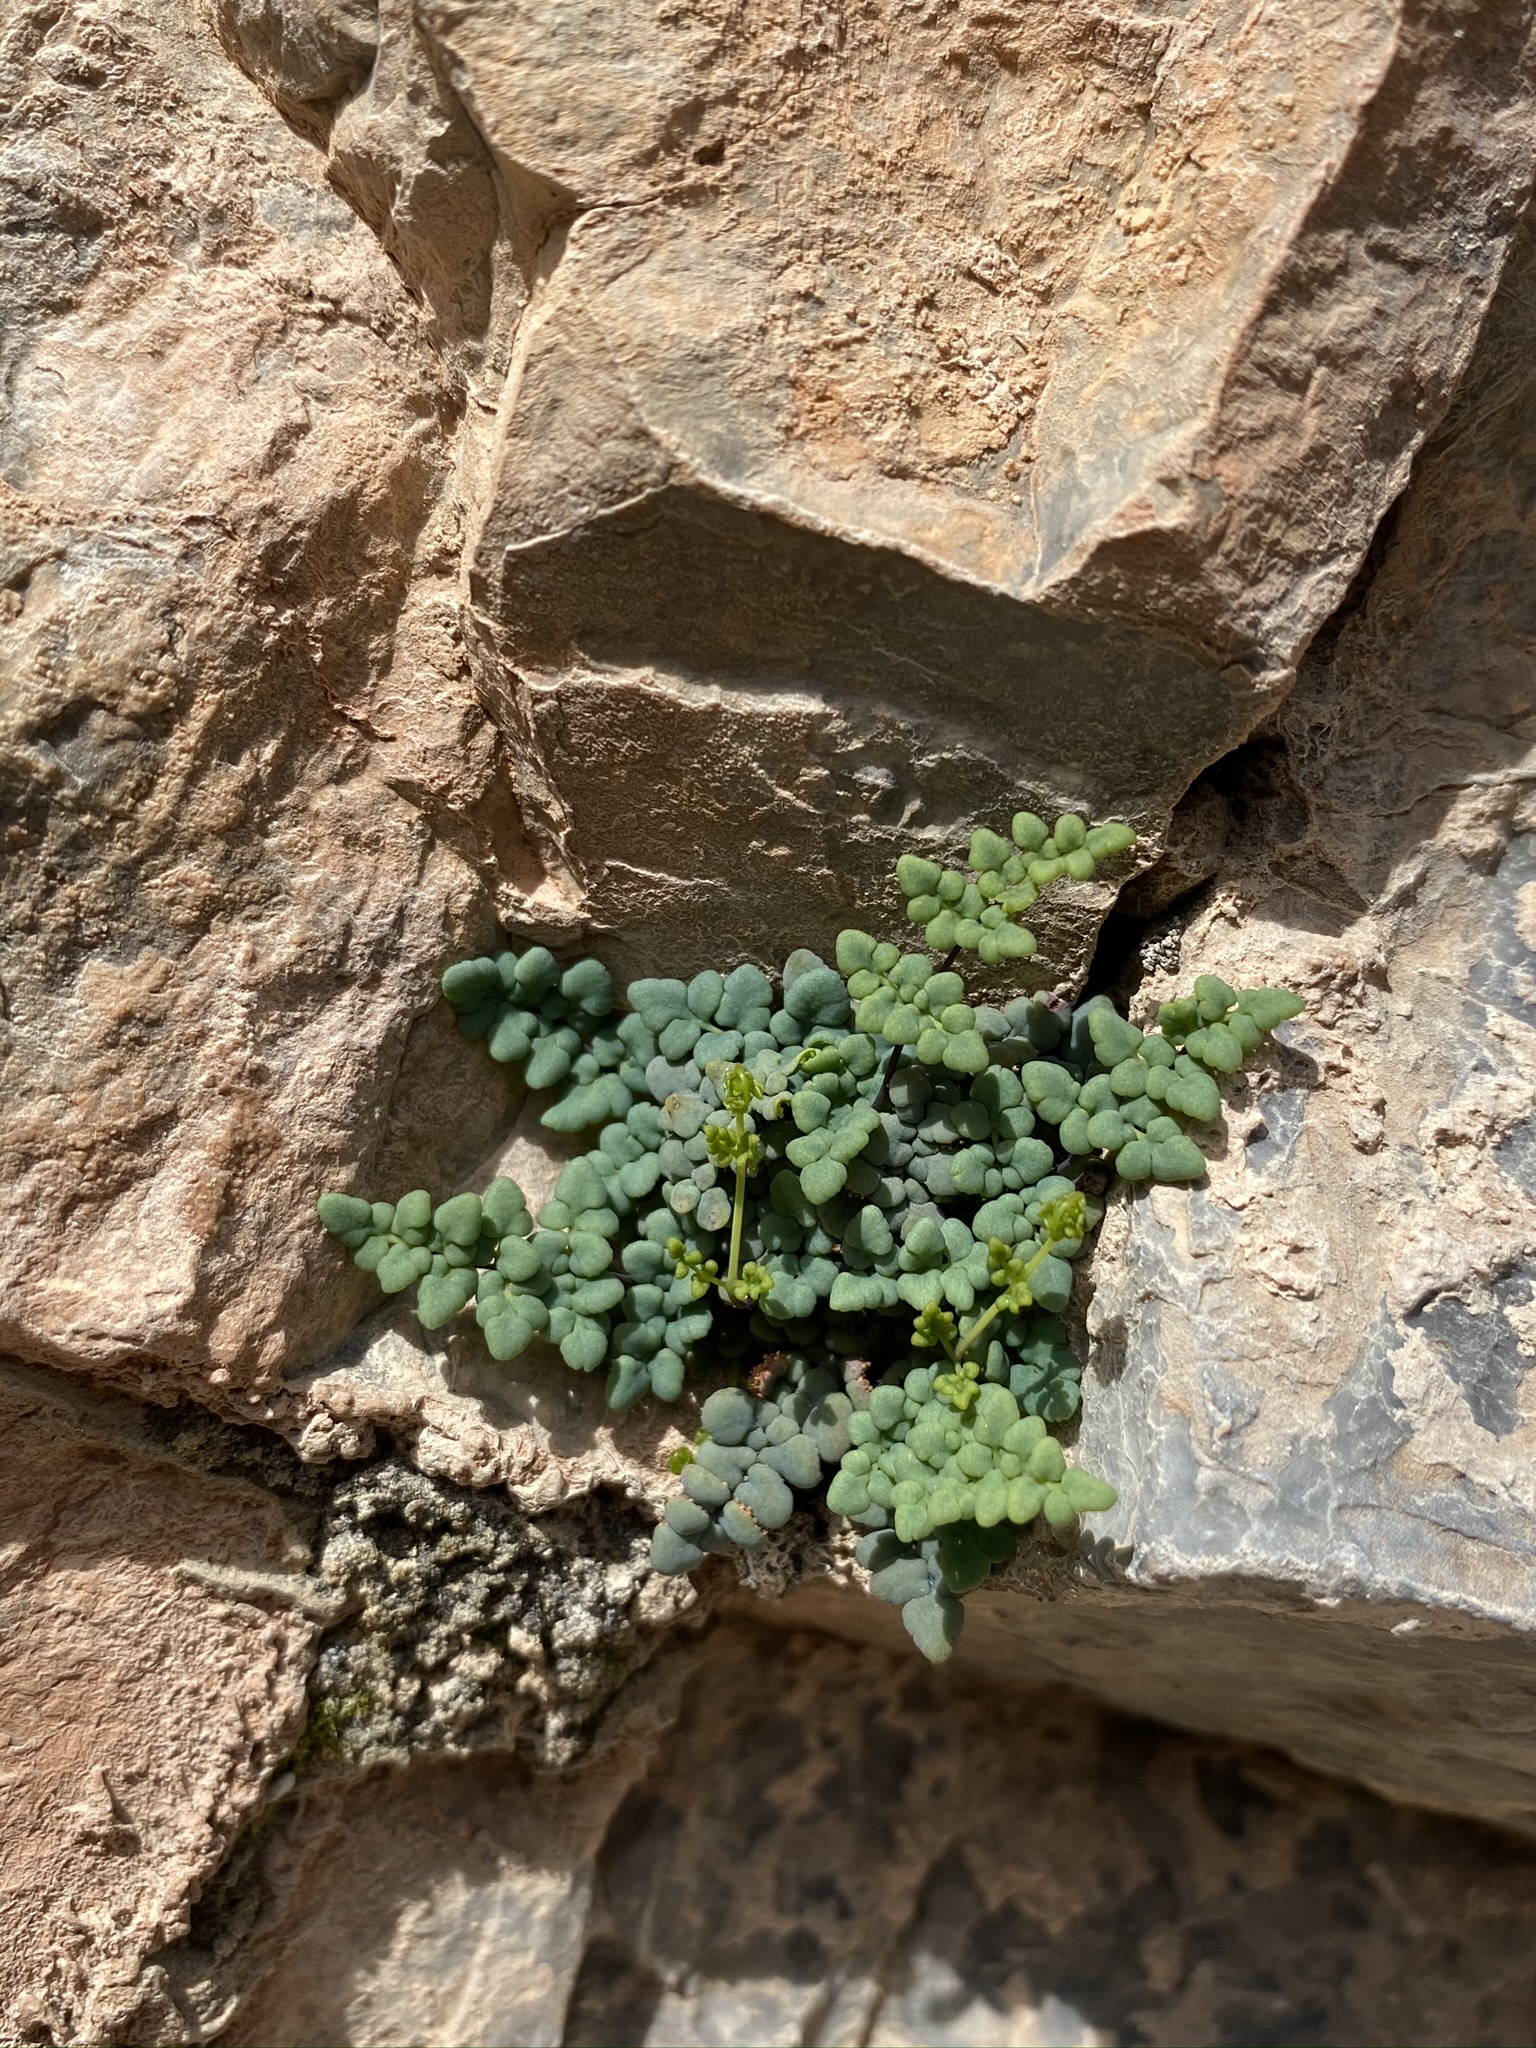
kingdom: Plantae
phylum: Tracheophyta
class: Polypodiopsida
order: Polypodiales
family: Pteridaceae
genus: Argyrochosma
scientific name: Argyrochosma jonesii
